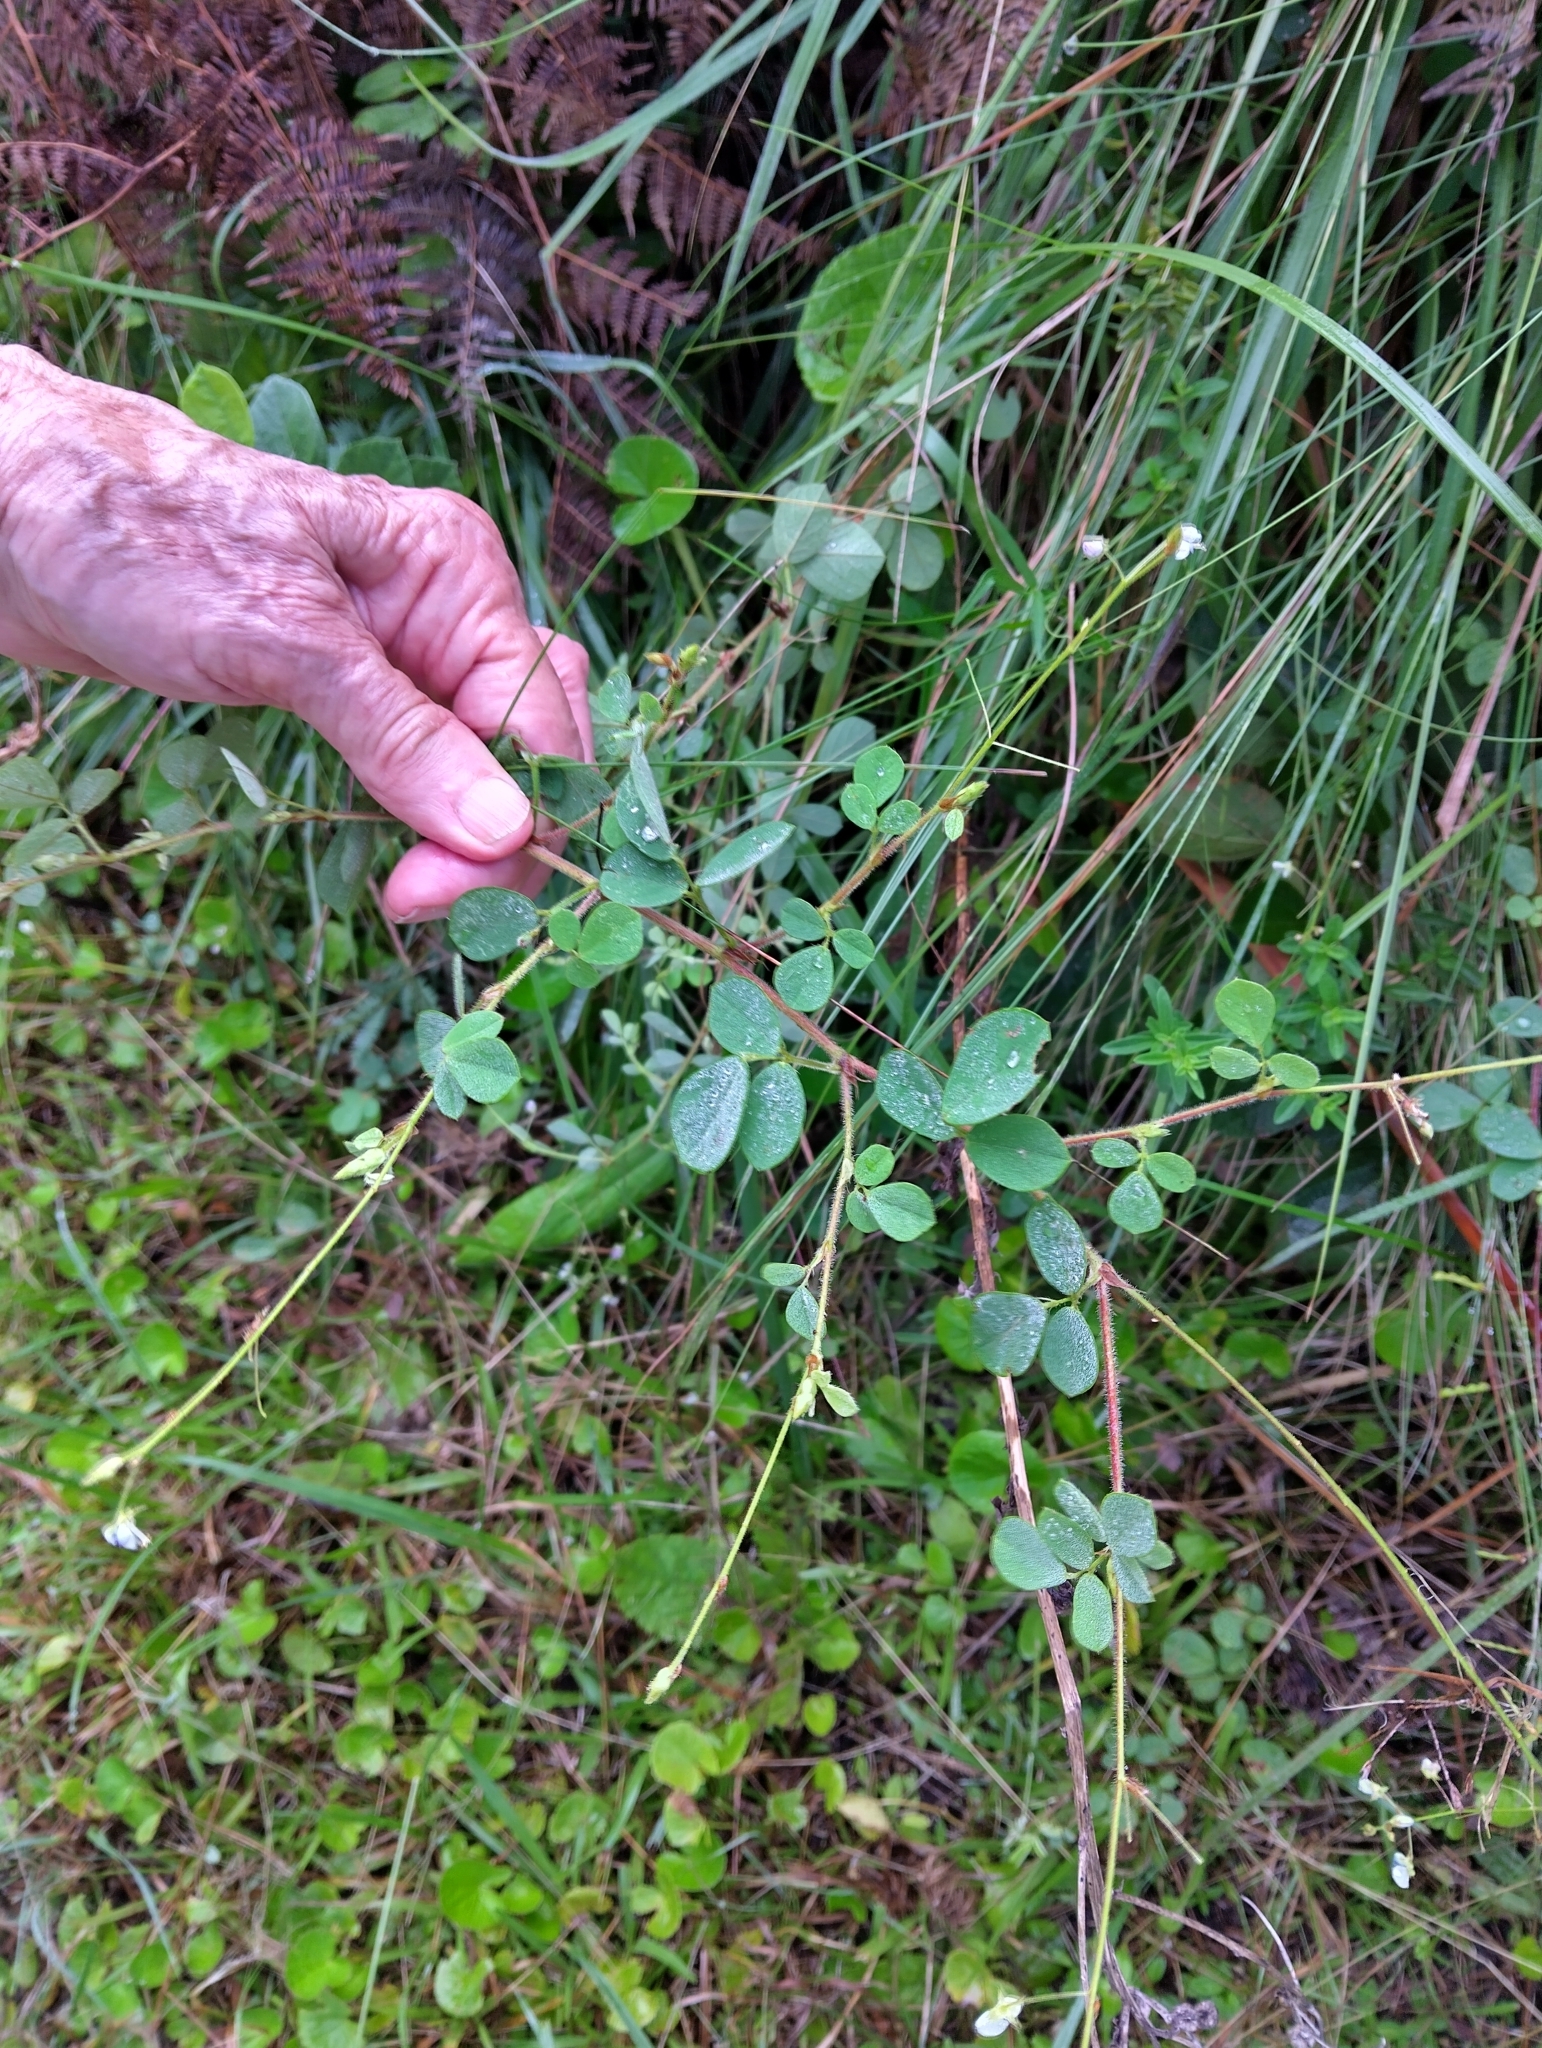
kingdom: Plantae
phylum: Tracheophyta
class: Magnoliopsida
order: Fabales
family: Fabaceae
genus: Grona
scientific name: Grona setigera
